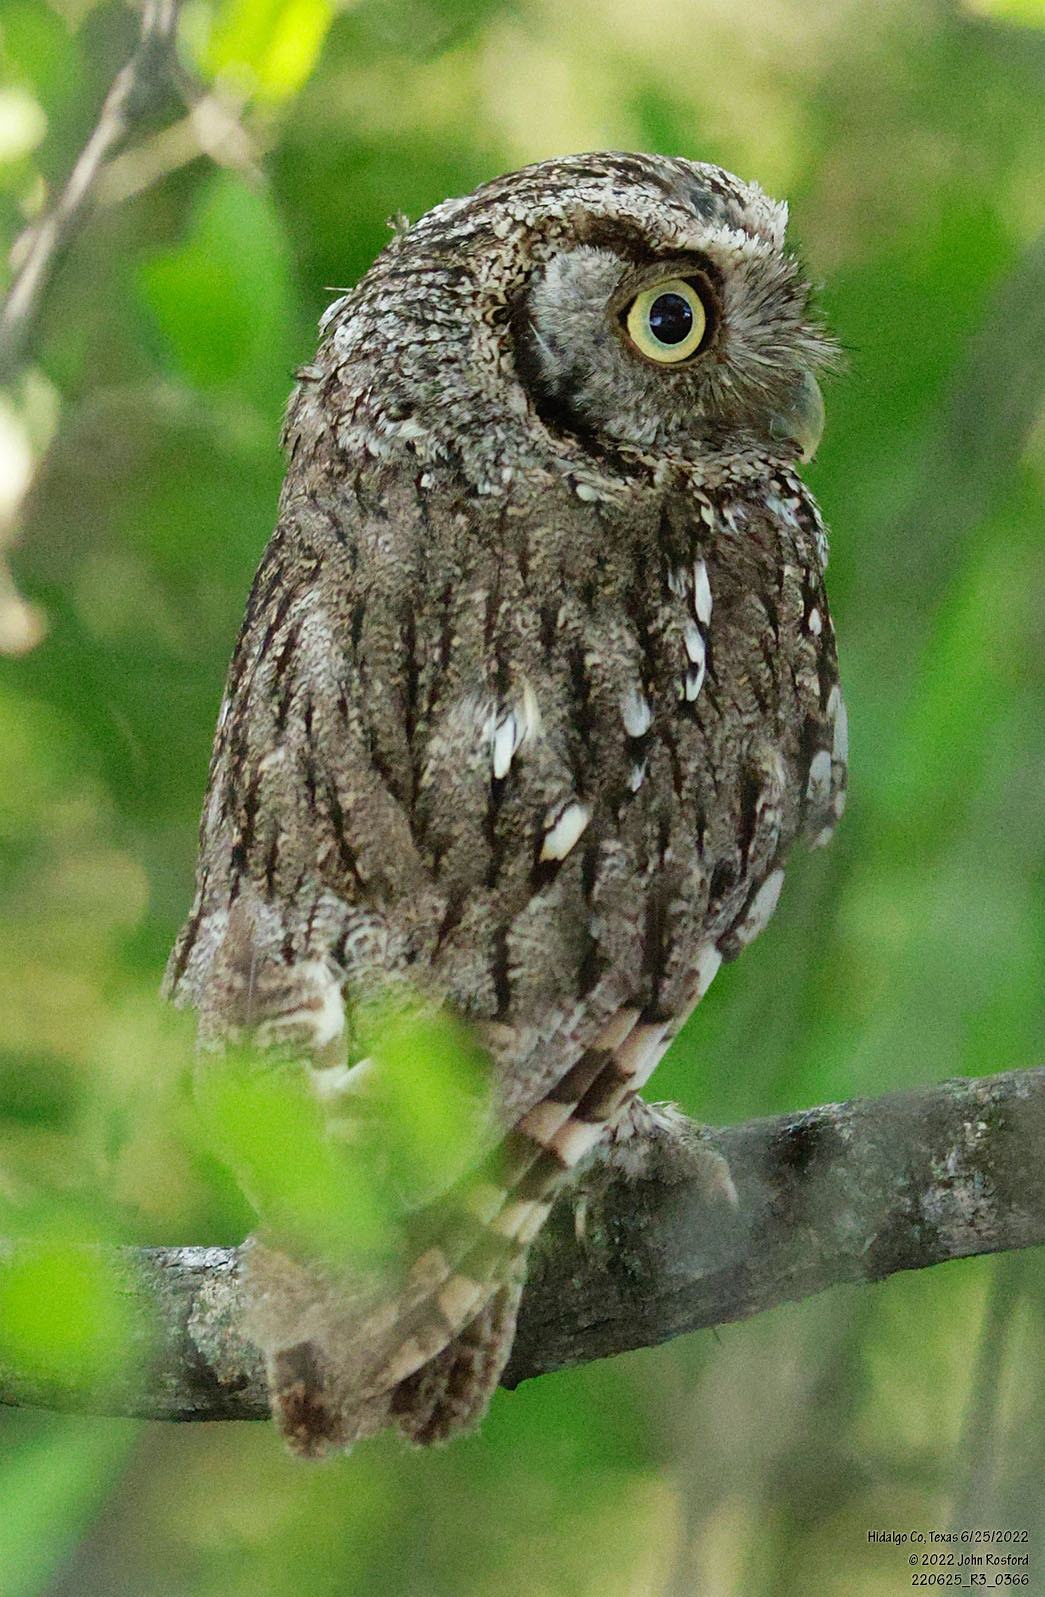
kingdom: Animalia
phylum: Chordata
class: Aves
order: Strigiformes
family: Strigidae
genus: Megascops
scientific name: Megascops asio
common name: Eastern screech-owl
